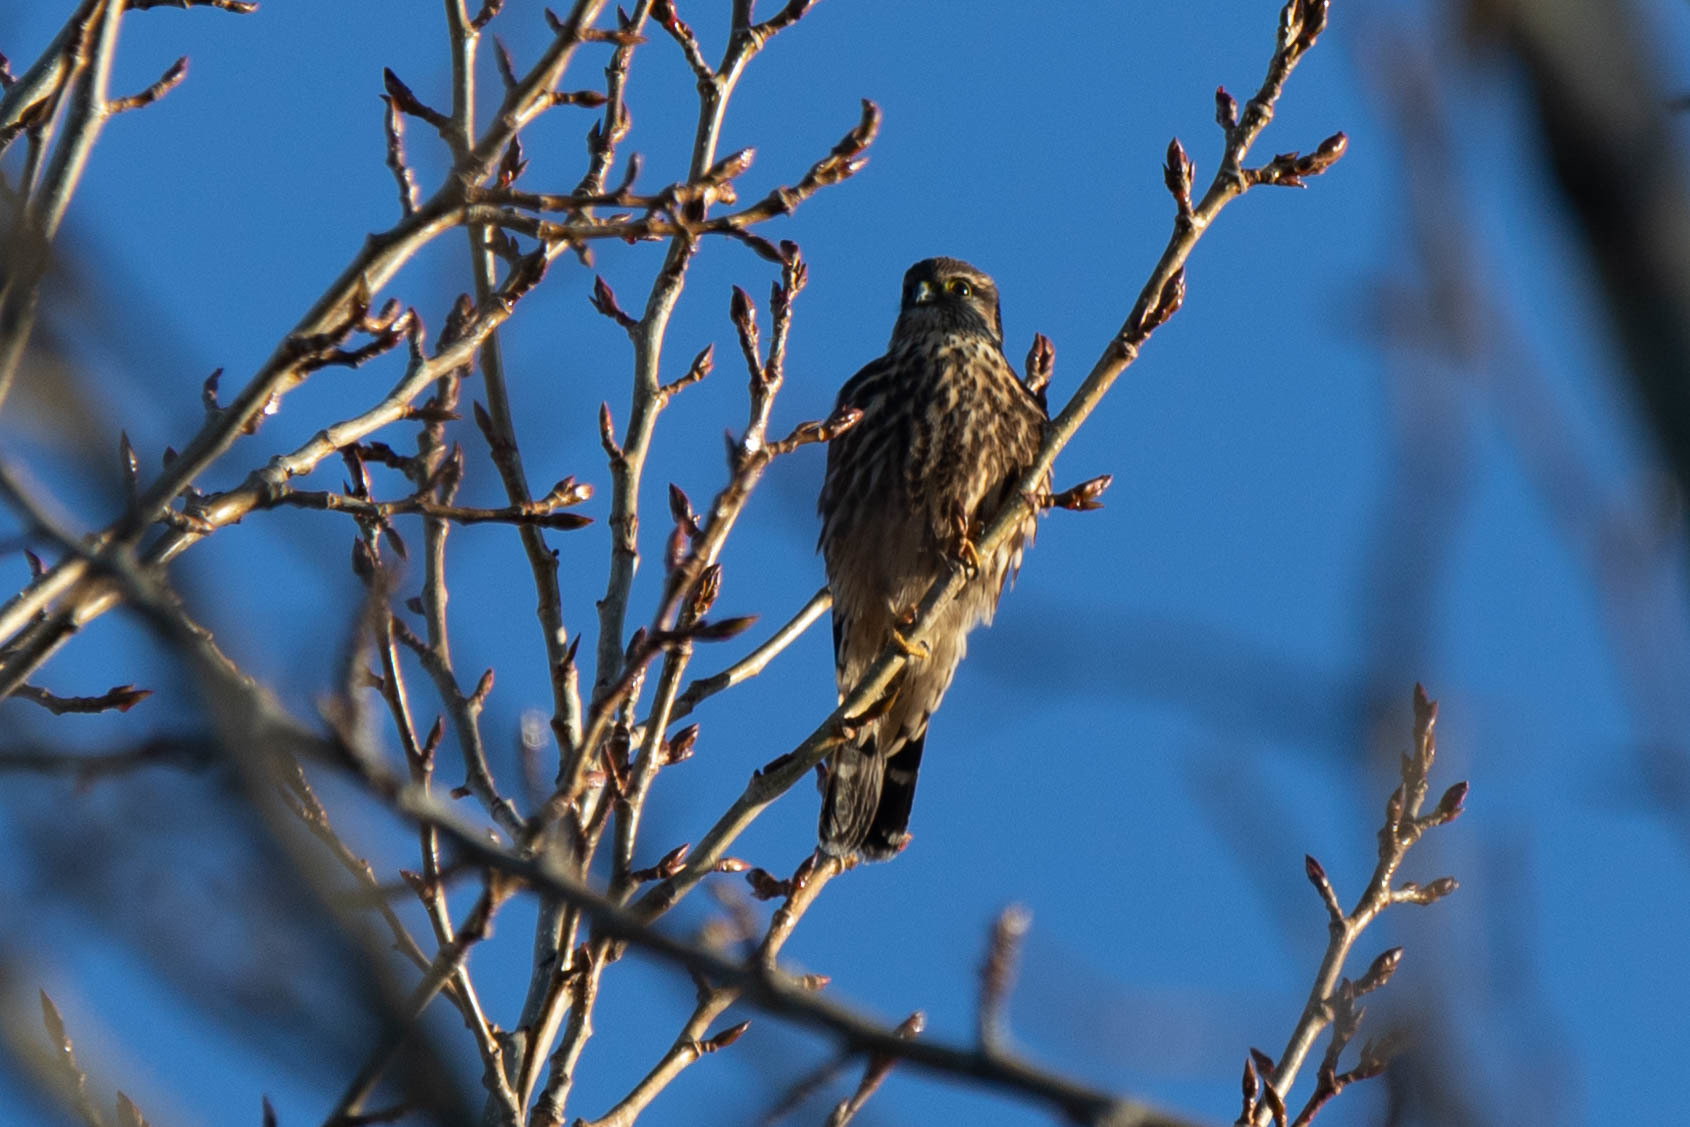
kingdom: Animalia
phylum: Chordata
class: Aves
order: Falconiformes
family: Falconidae
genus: Falco
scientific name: Falco columbarius
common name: Merlin
